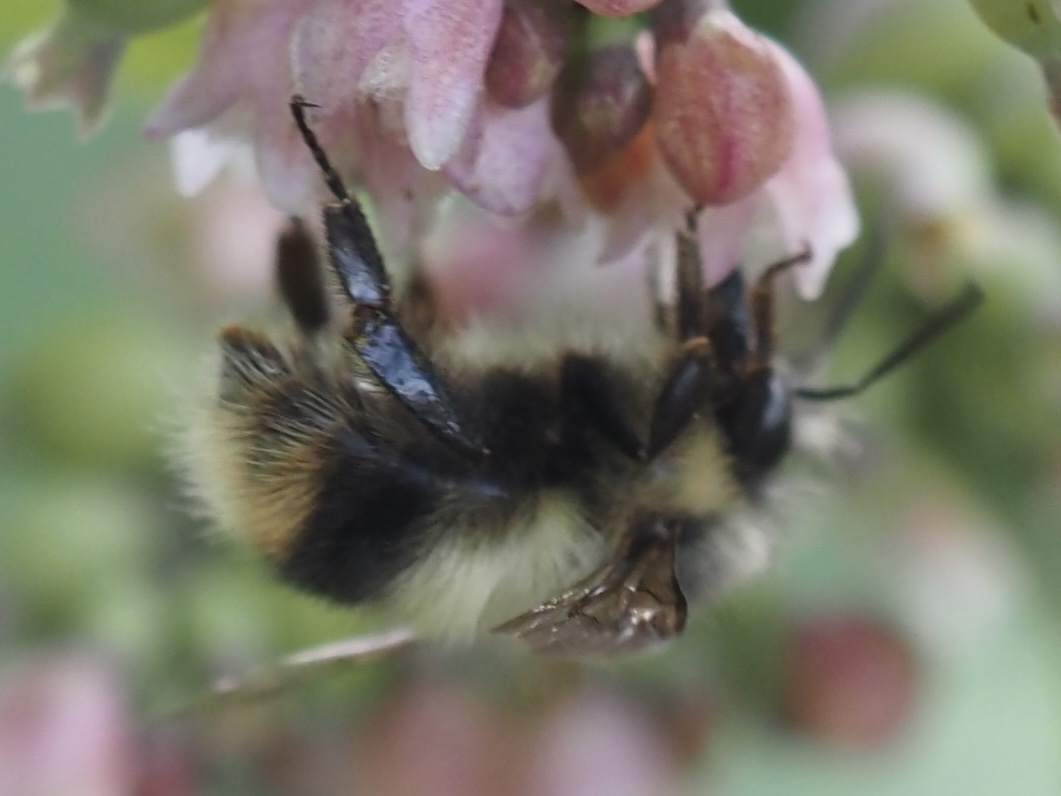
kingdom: Animalia
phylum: Arthropoda
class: Insecta
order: Hymenoptera
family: Apidae
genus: Bombus
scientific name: Bombus mixtus
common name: Fuzzy-horned bumble bee
